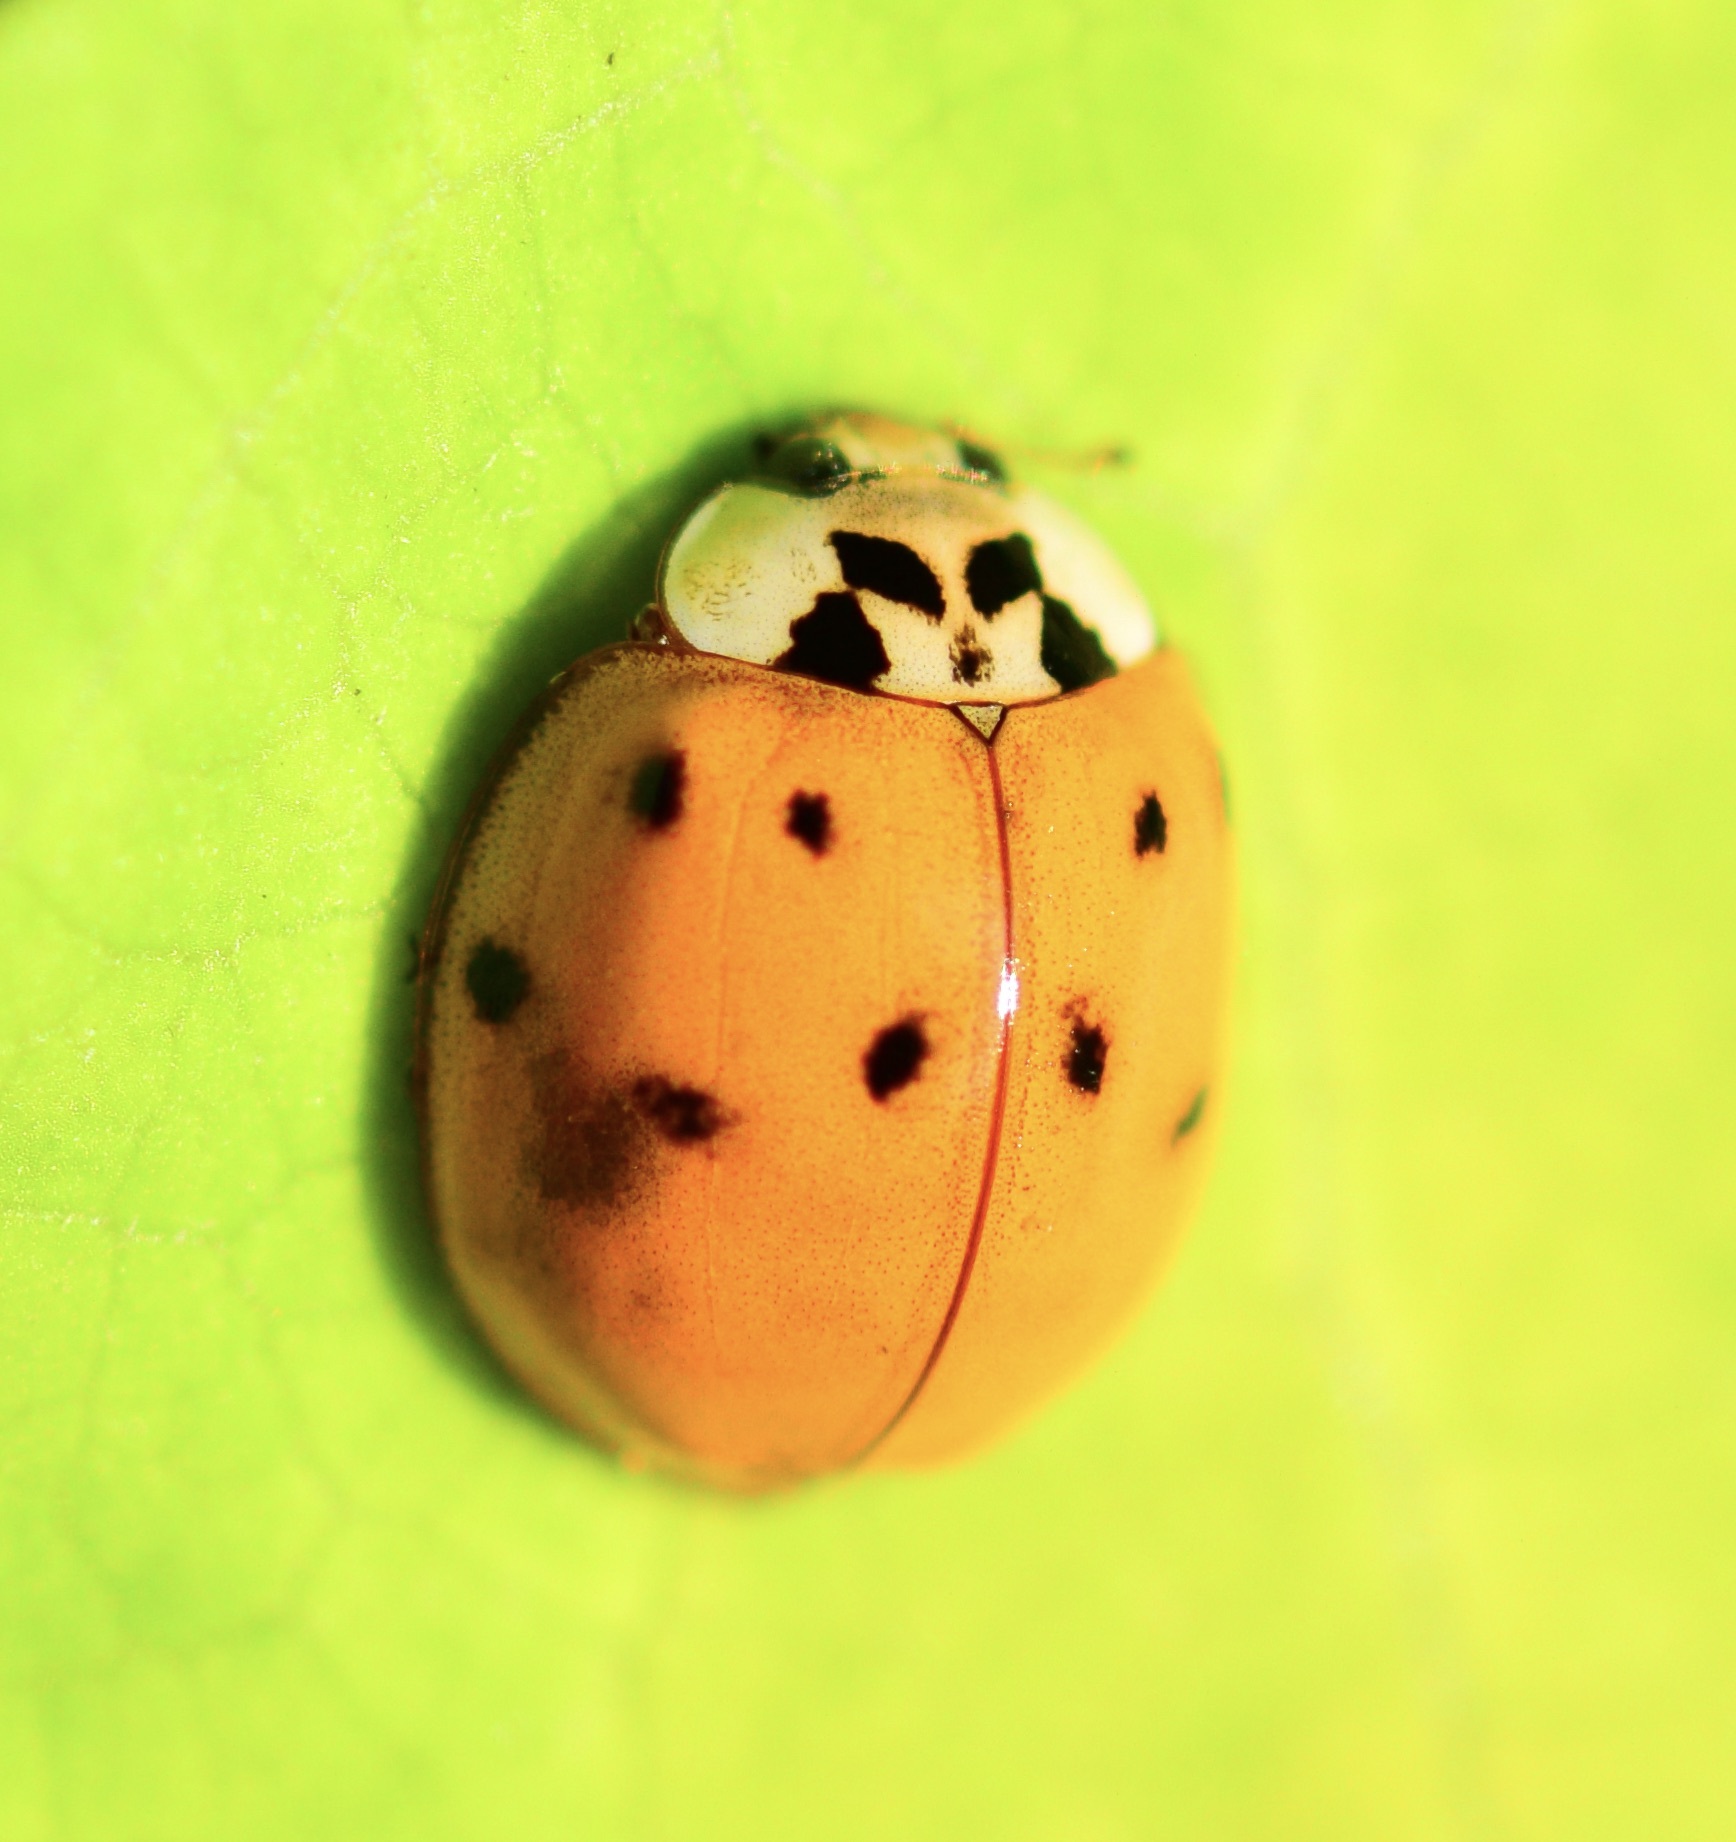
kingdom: Animalia
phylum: Arthropoda
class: Insecta
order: Coleoptera
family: Coccinellidae
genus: Harmonia
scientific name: Harmonia axyridis
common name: Harlequin ladybird
